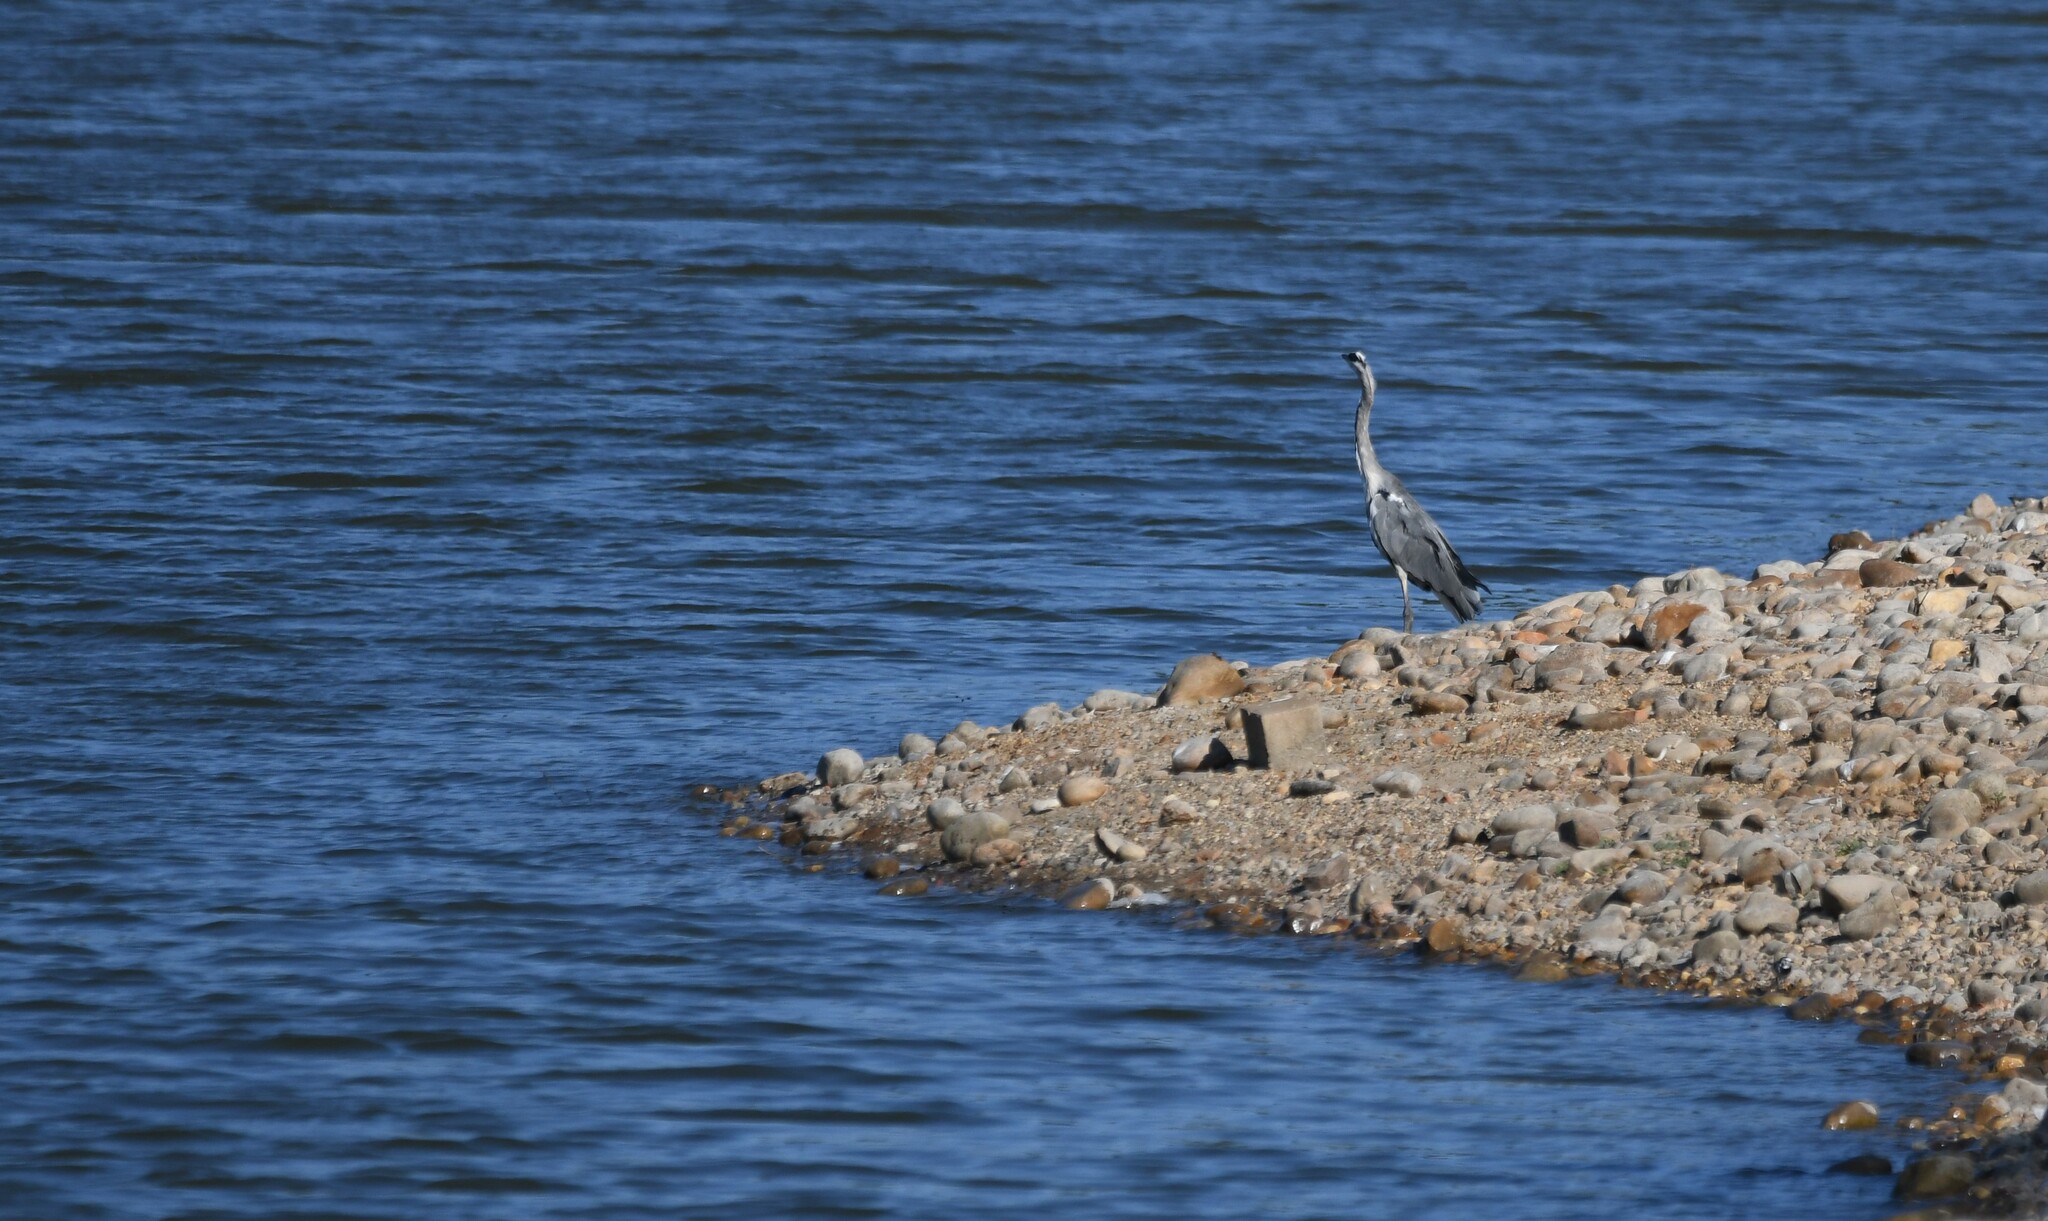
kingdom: Animalia
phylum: Chordata
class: Aves
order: Pelecaniformes
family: Ardeidae
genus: Ardea
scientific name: Ardea cinerea
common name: Grey heron
